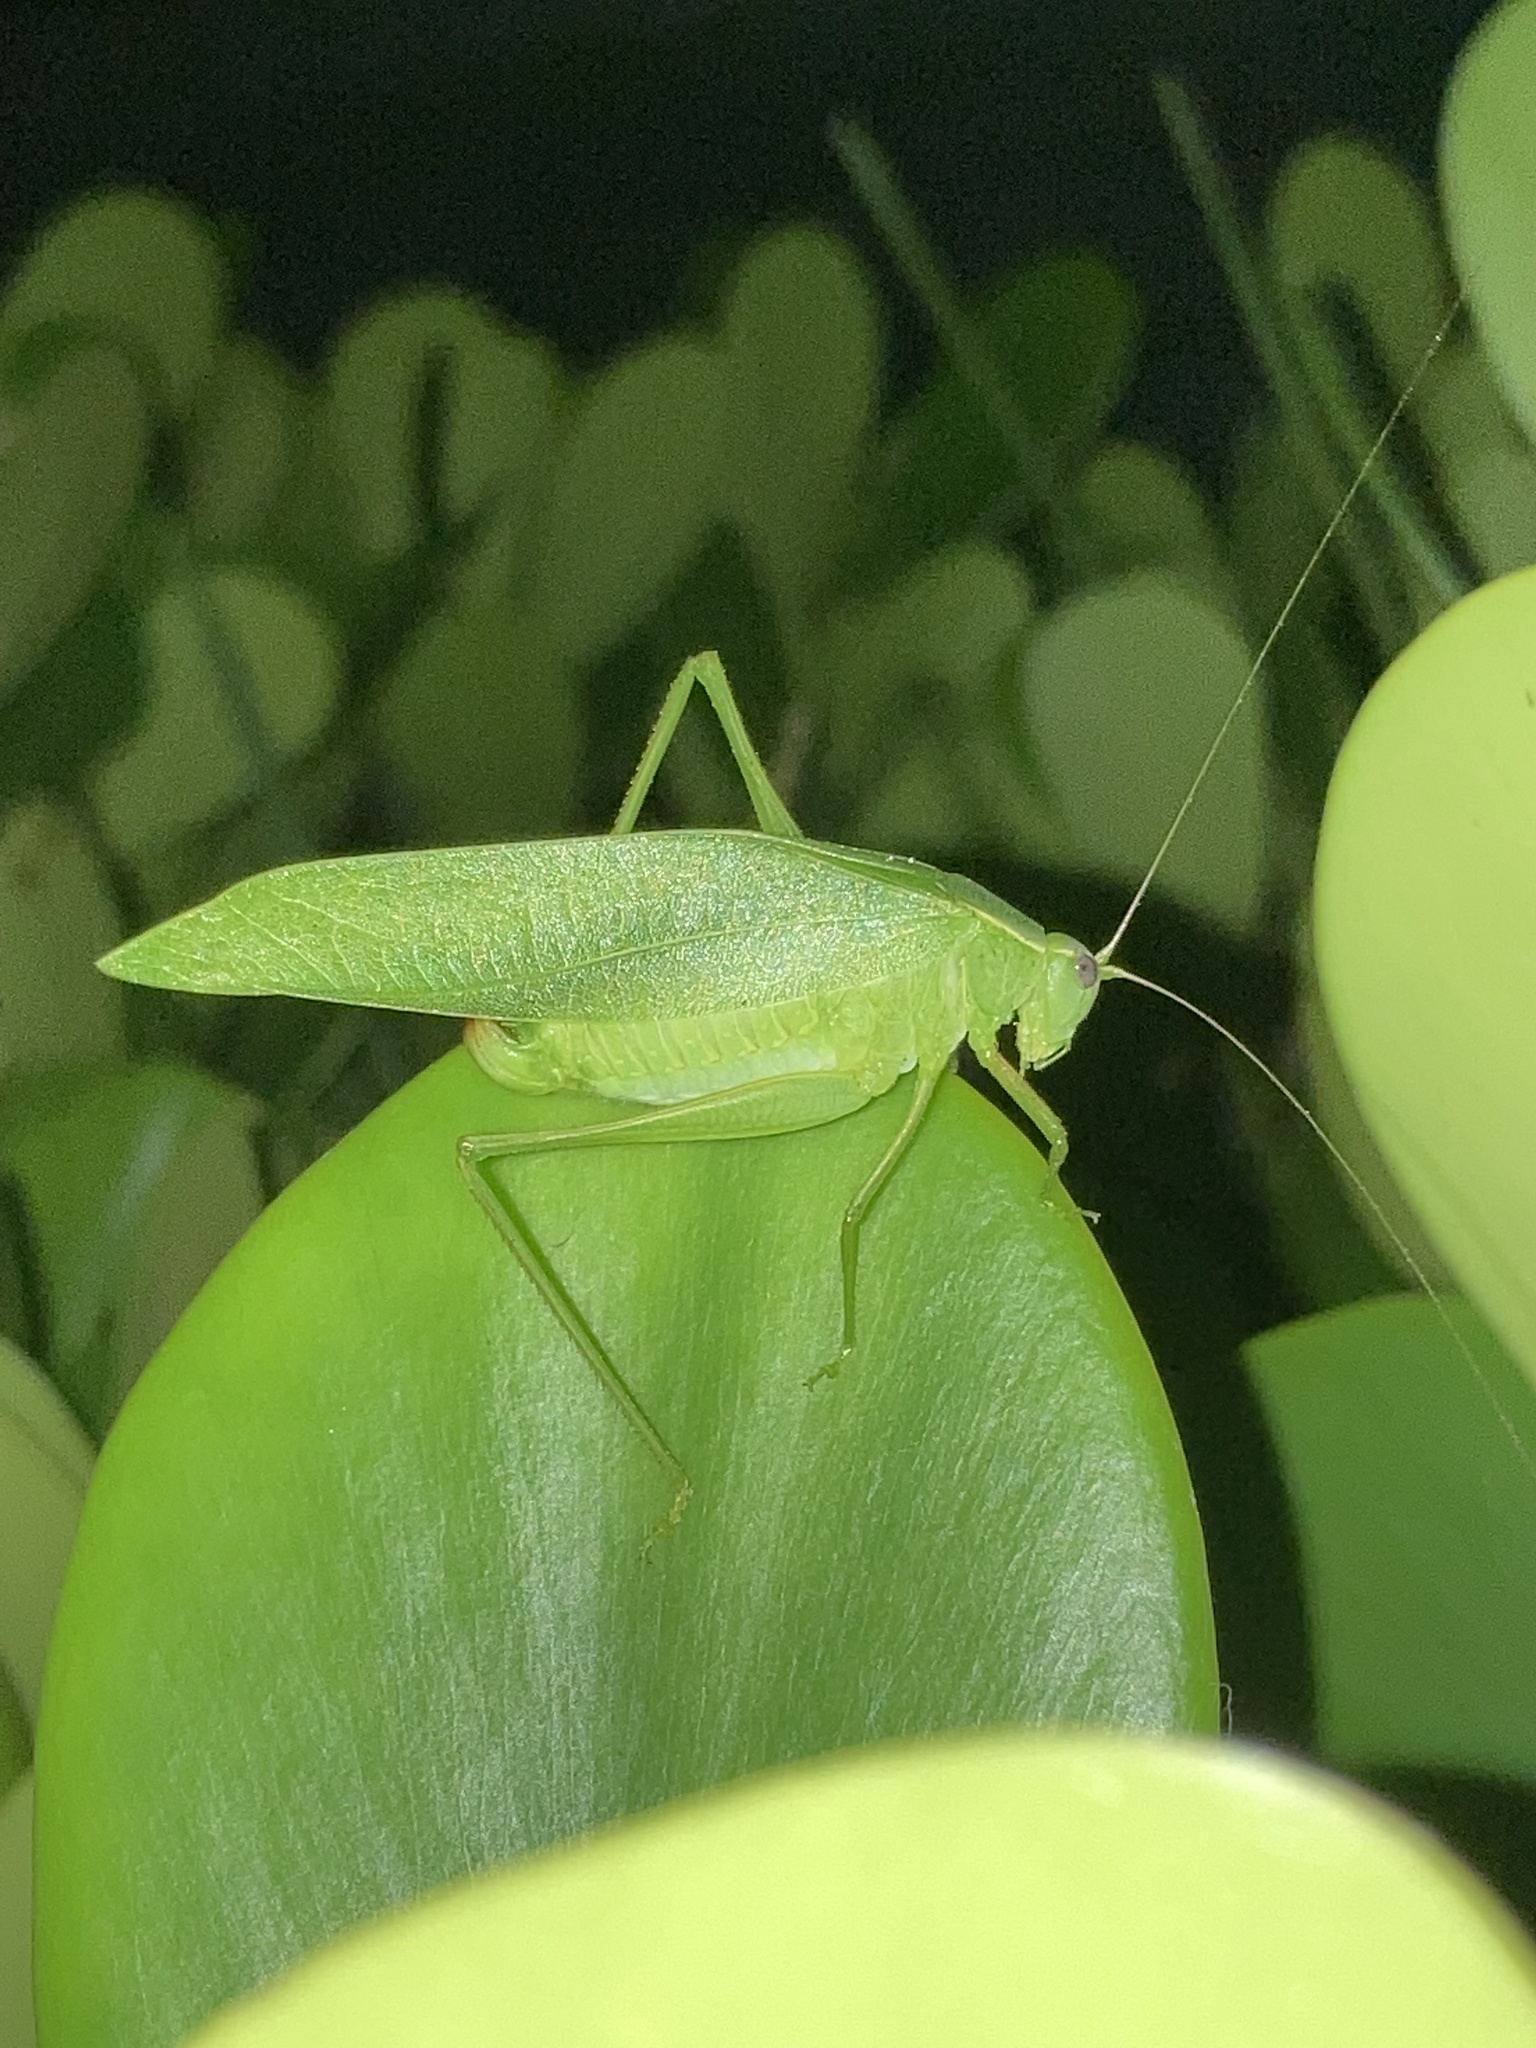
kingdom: Animalia
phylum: Arthropoda
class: Insecta
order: Orthoptera
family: Tettigoniidae
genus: Turpilia
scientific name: Turpilia rostrata
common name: Narrow-beaked katydid
